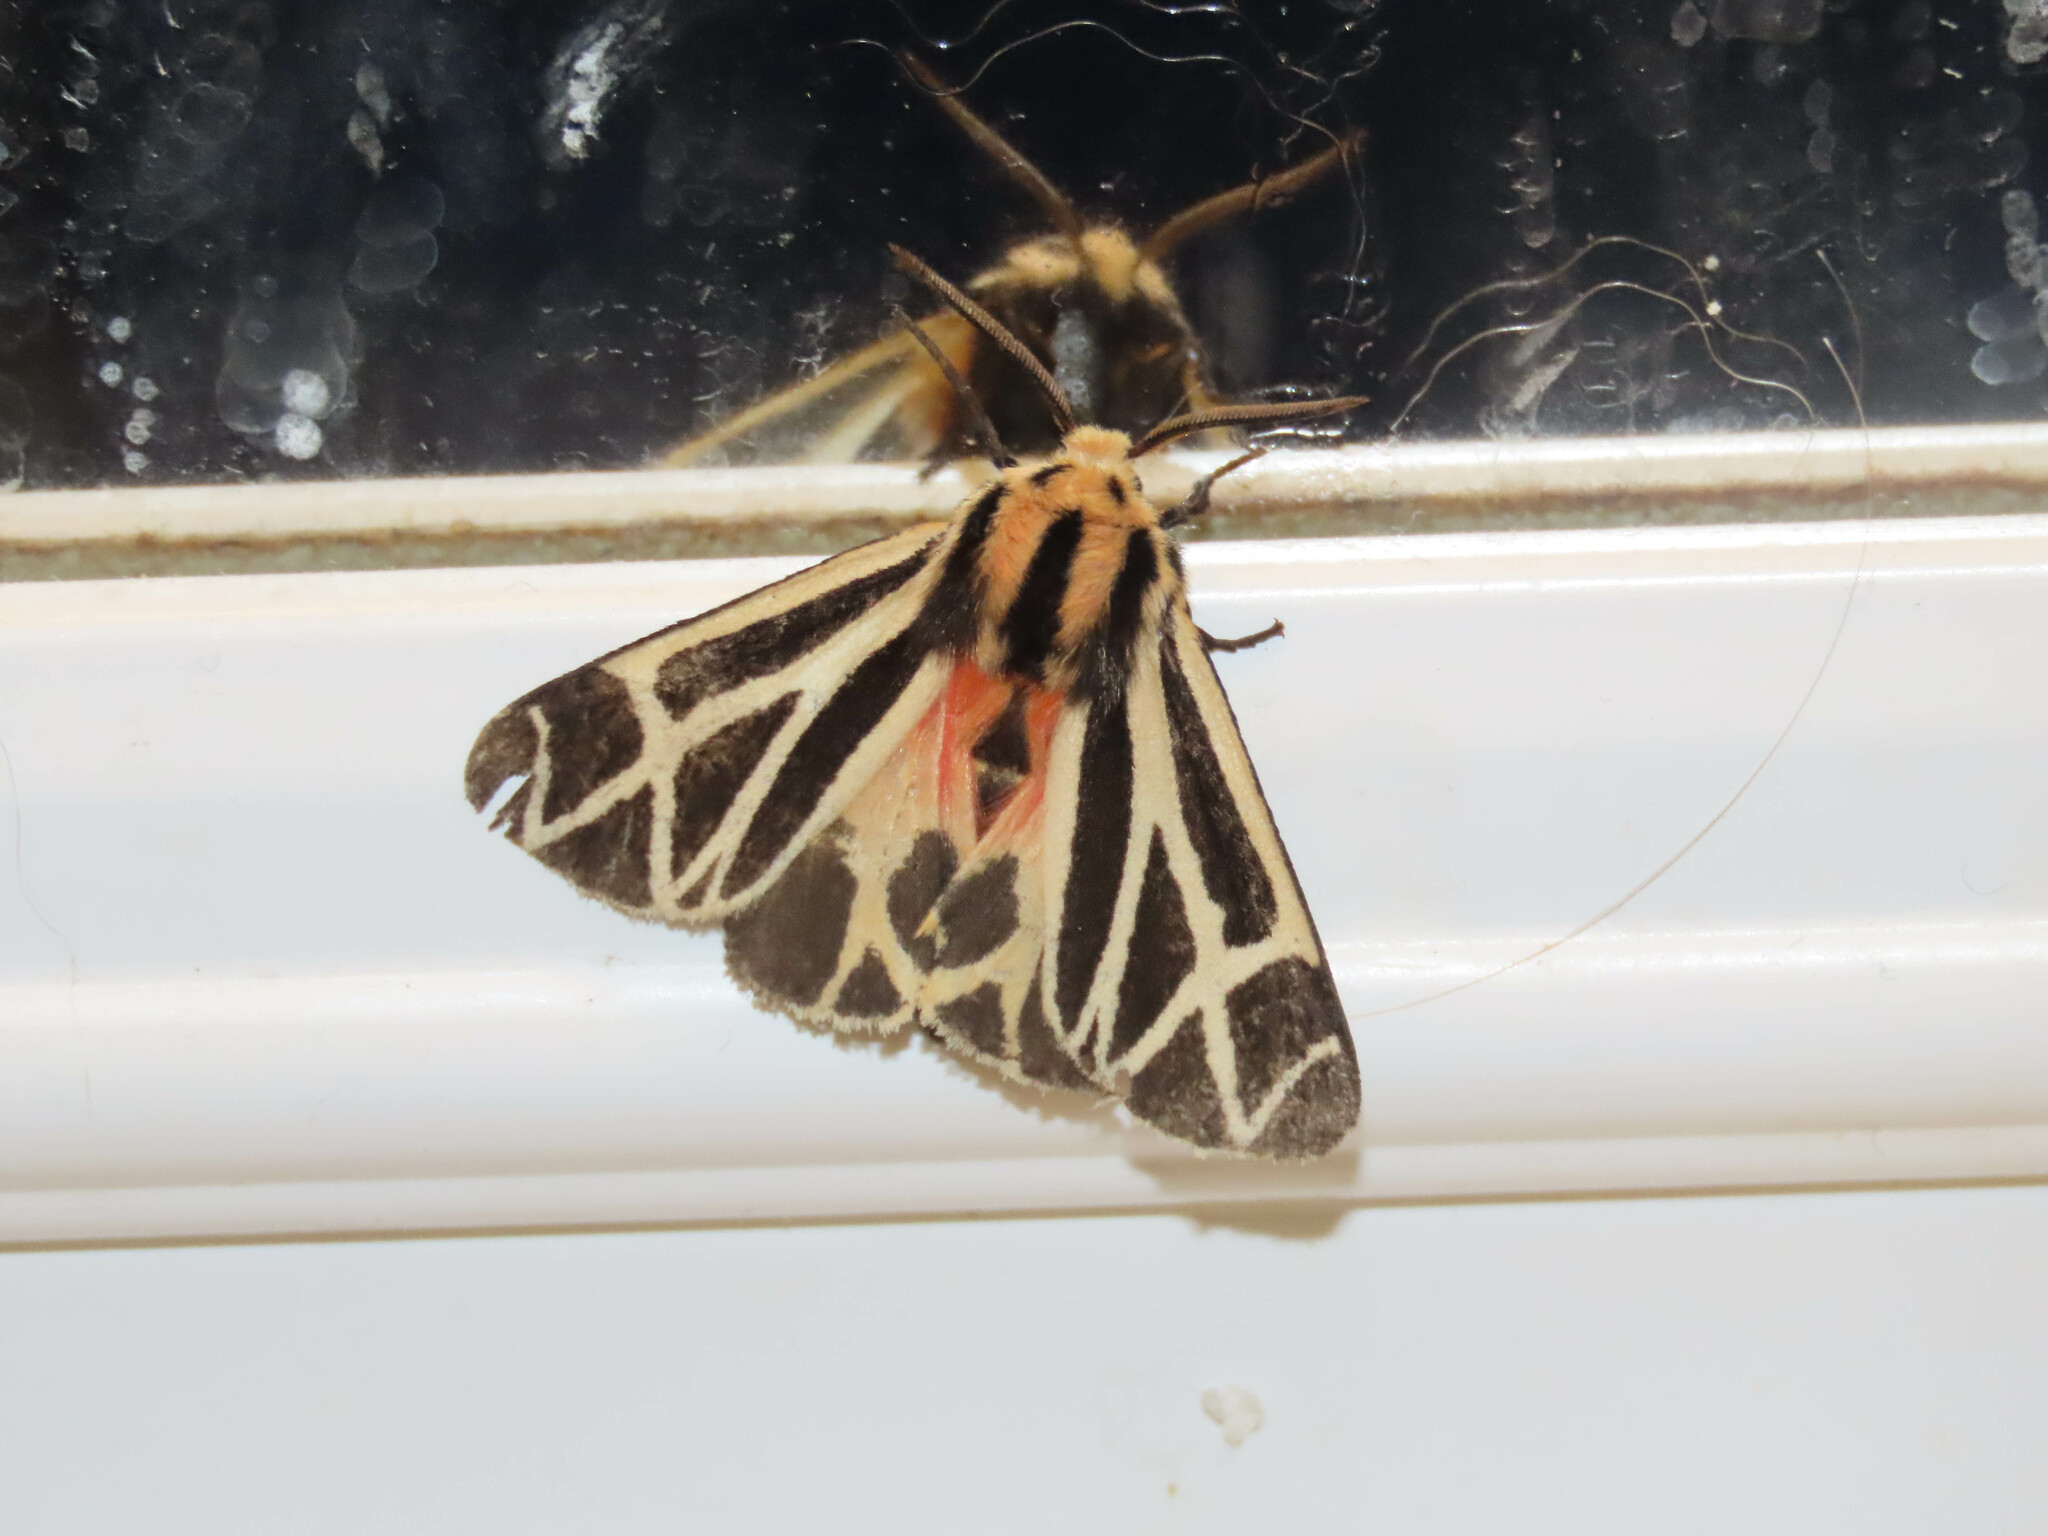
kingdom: Animalia
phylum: Arthropoda
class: Insecta
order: Lepidoptera
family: Erebidae
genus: Apantesis
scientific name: Apantesis phalerata
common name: Harnessed tiger moth
